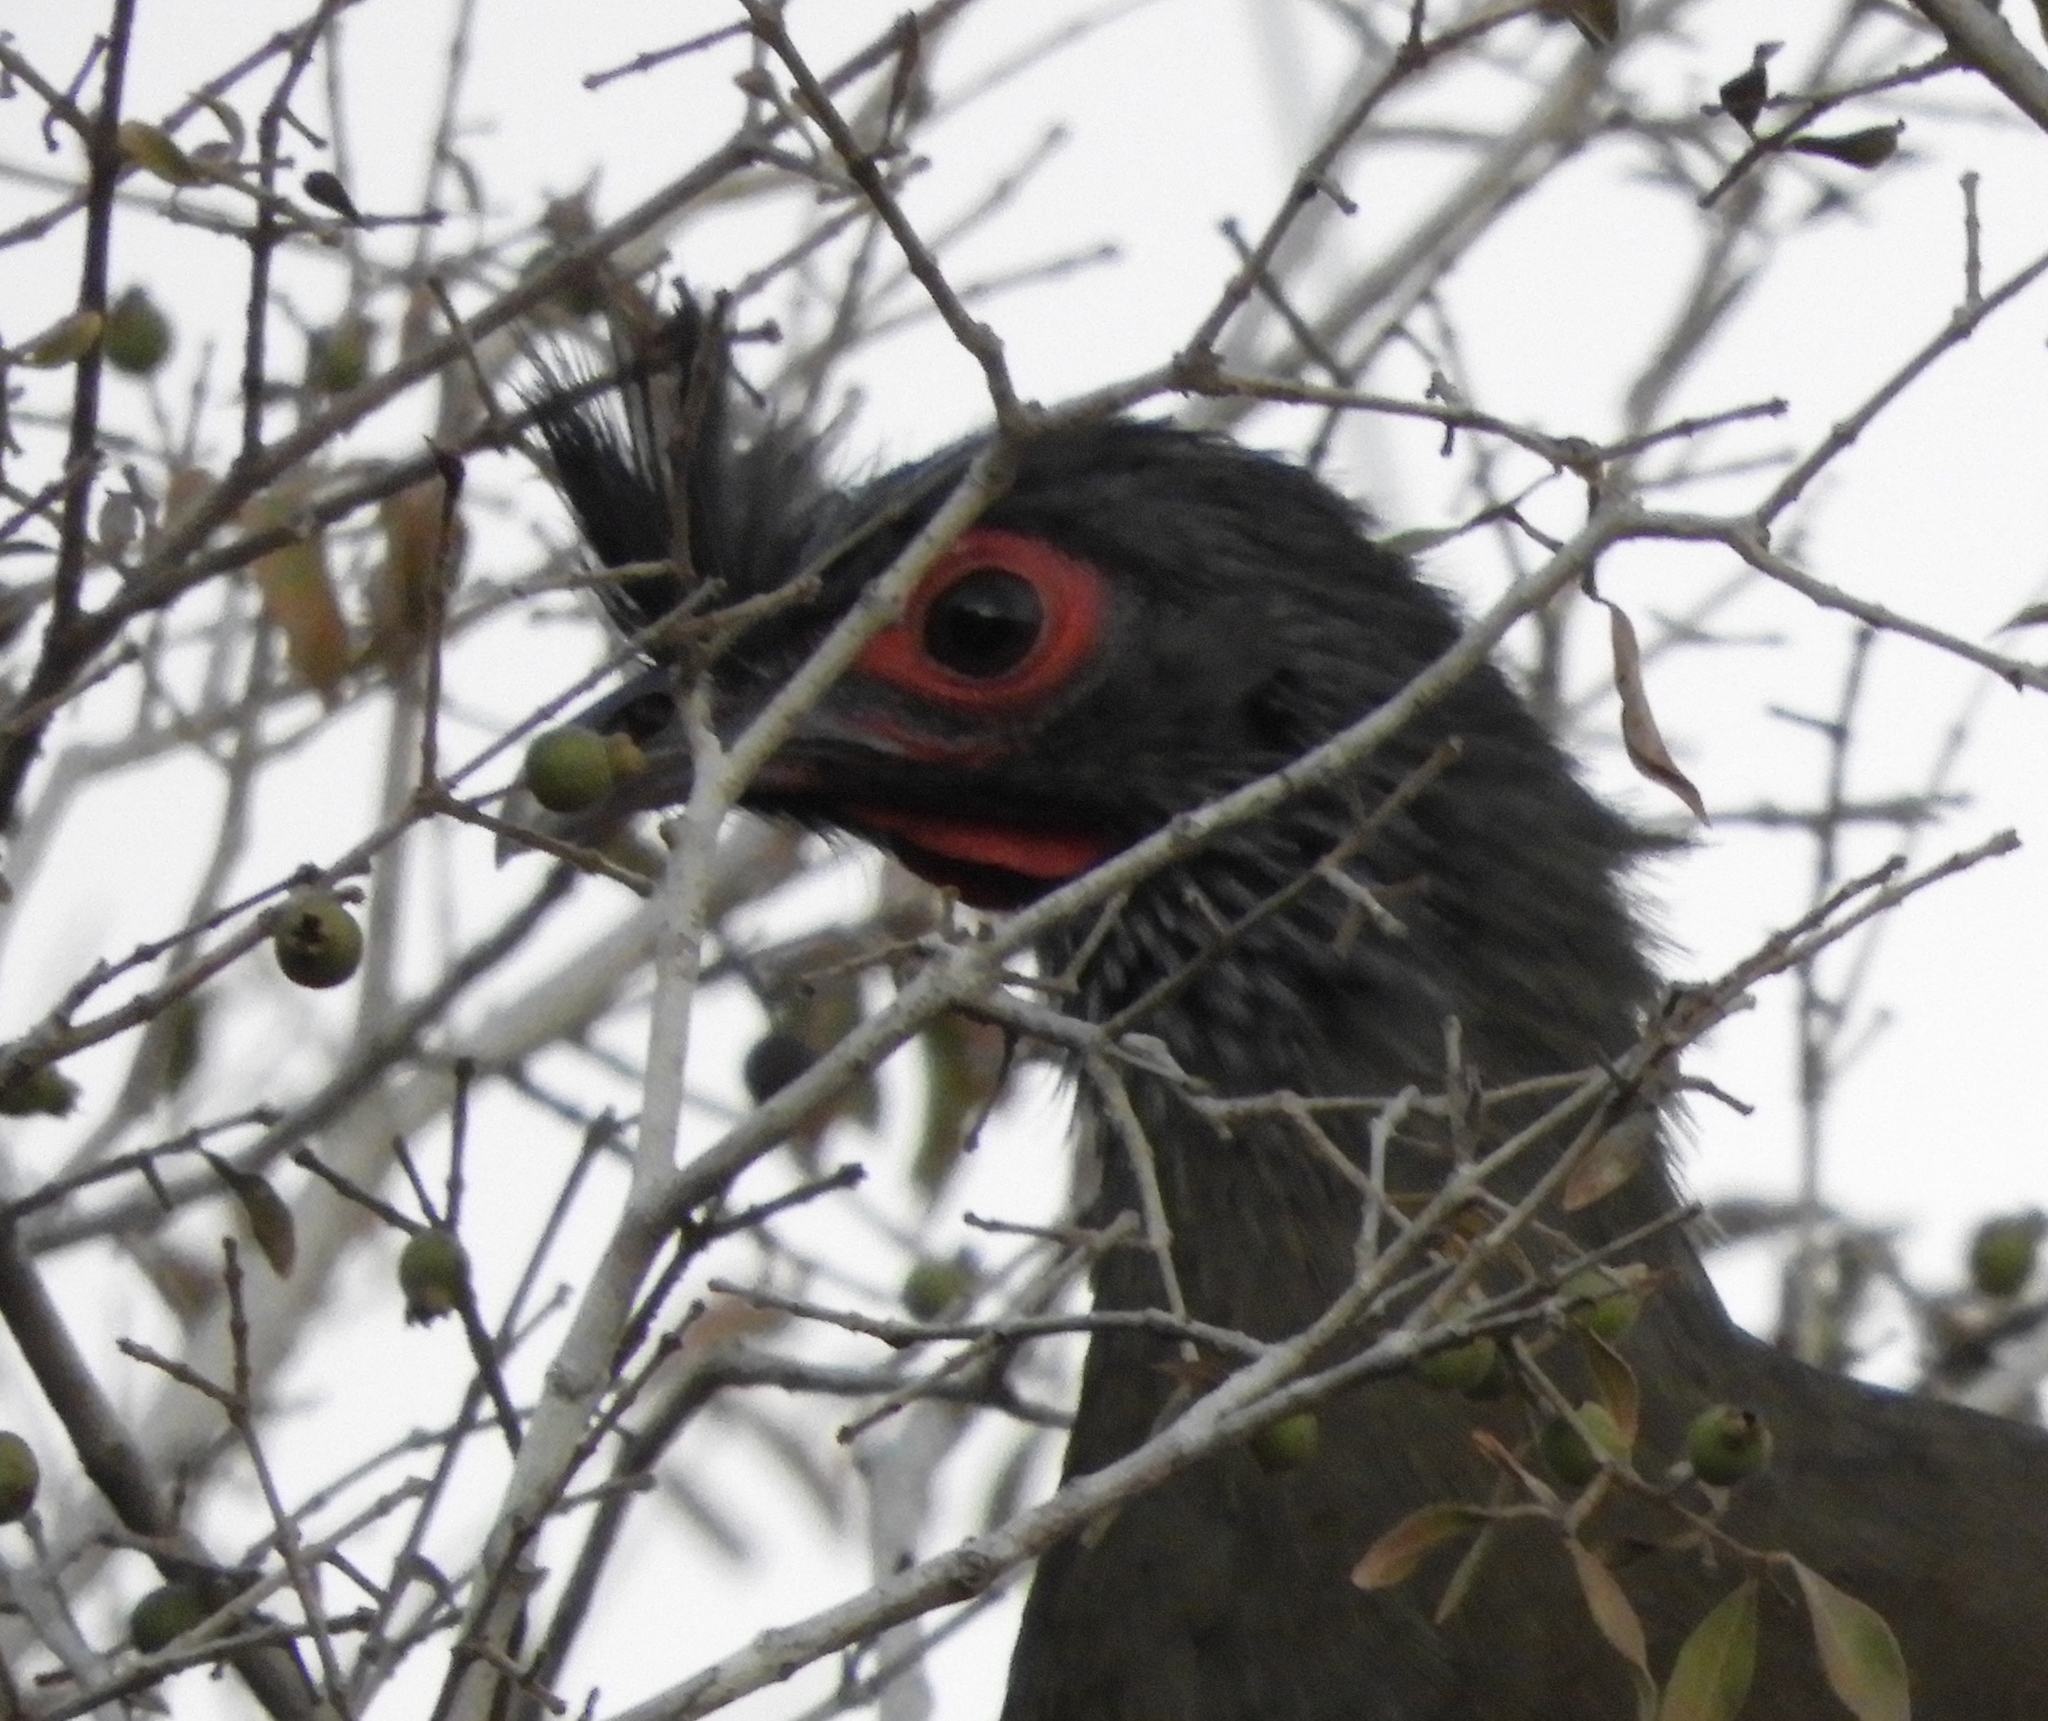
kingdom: Animalia
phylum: Chordata
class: Aves
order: Galliformes
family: Cracidae
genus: Ortalis
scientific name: Ortalis wagleri
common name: Rufous-bellied chachalaca
